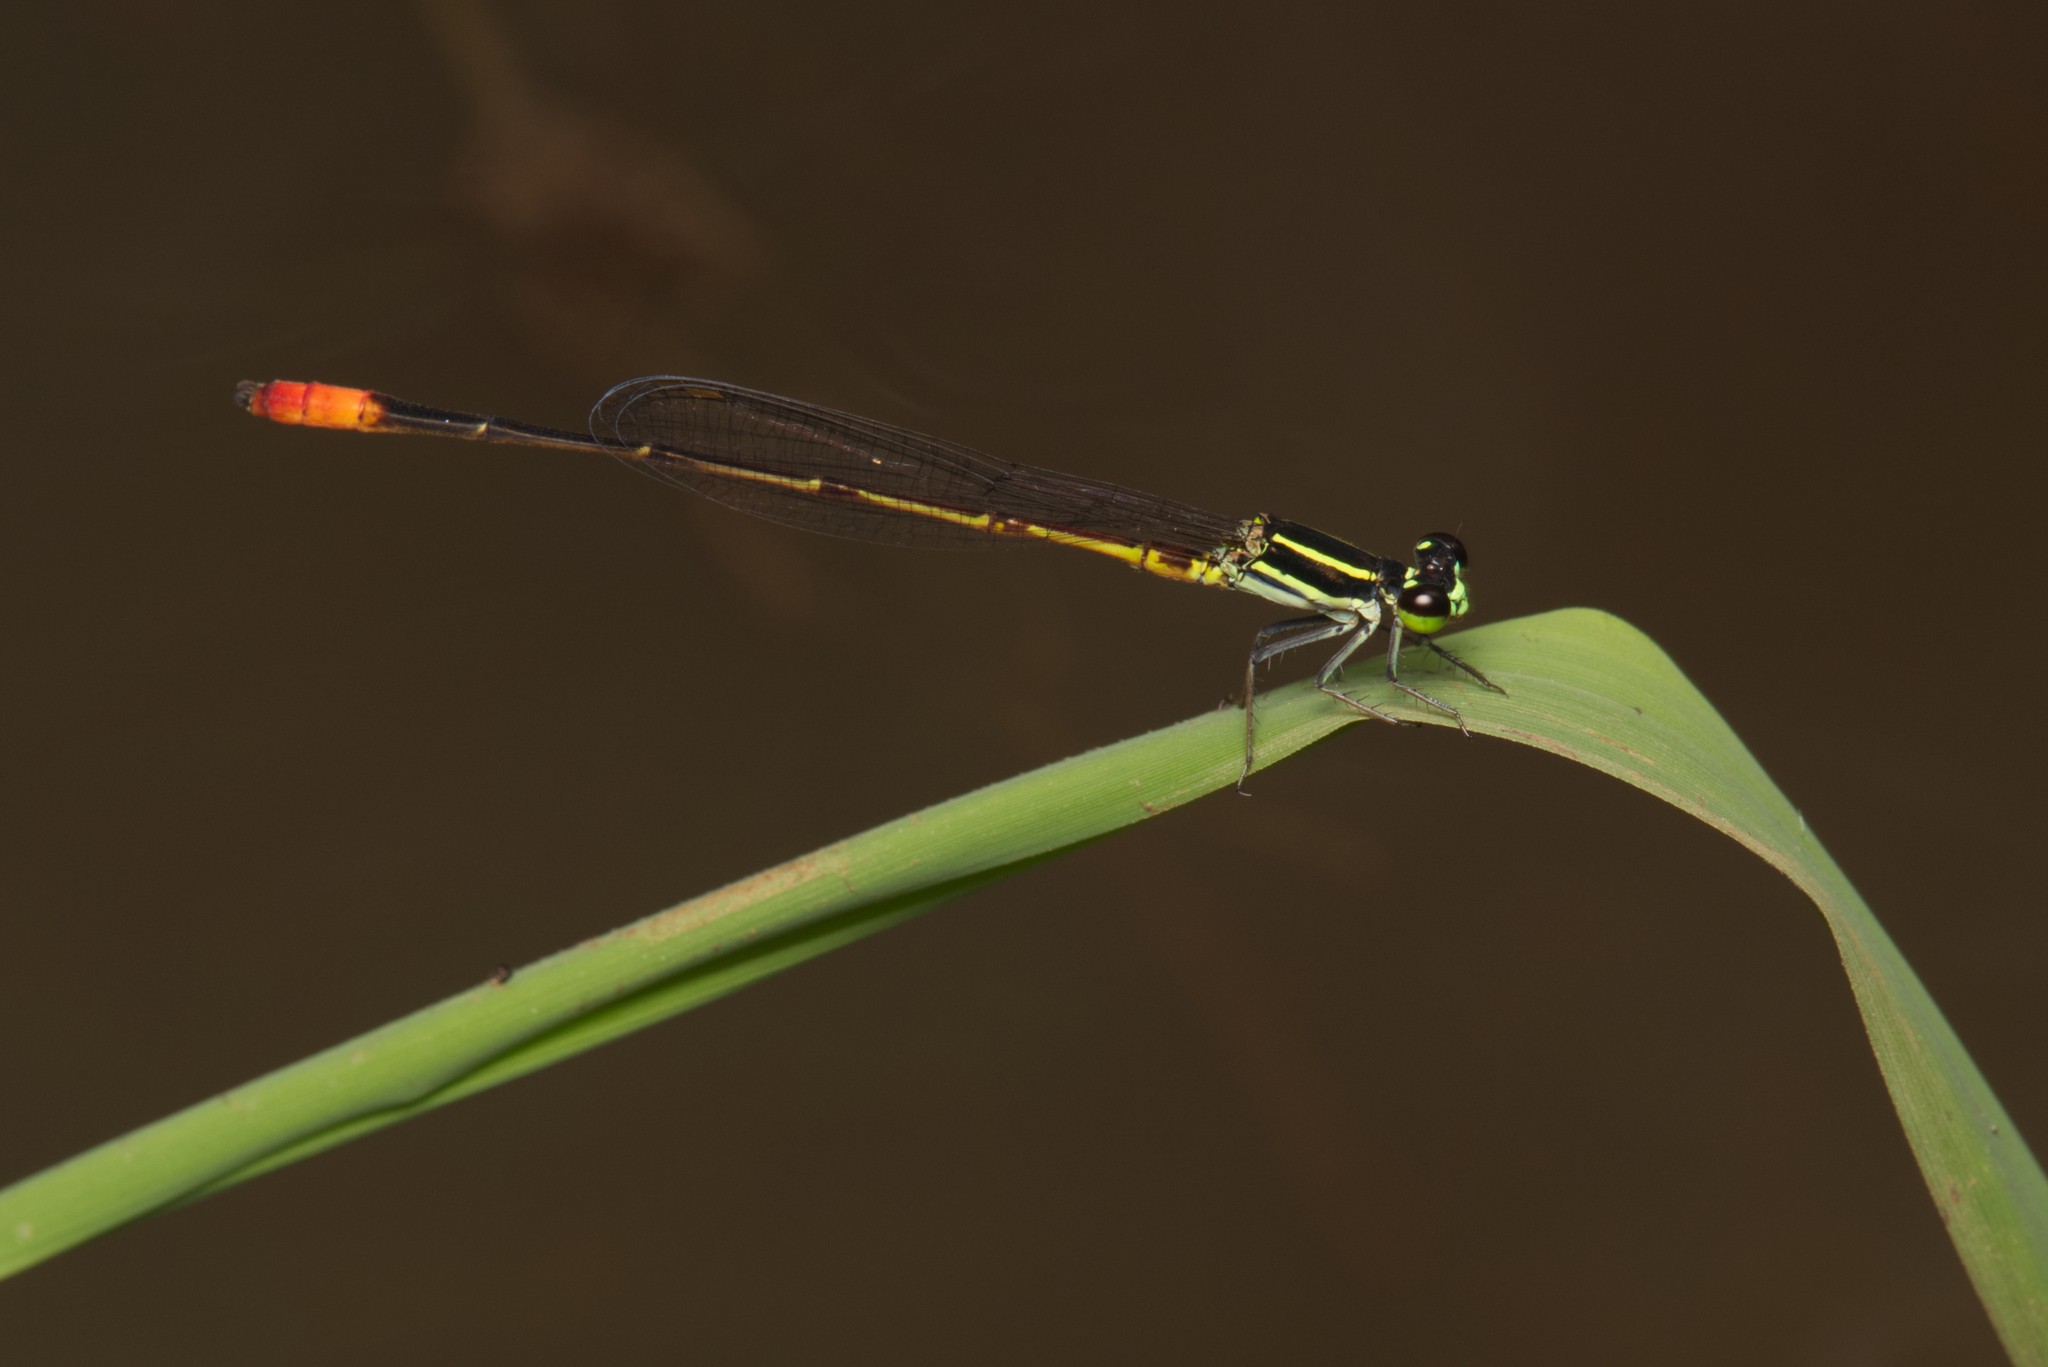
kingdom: Animalia
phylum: Arthropoda
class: Insecta
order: Odonata
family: Coenagrionidae
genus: Argiocnemis
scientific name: Argiocnemis rubescens
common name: Red-tipped shadefly
